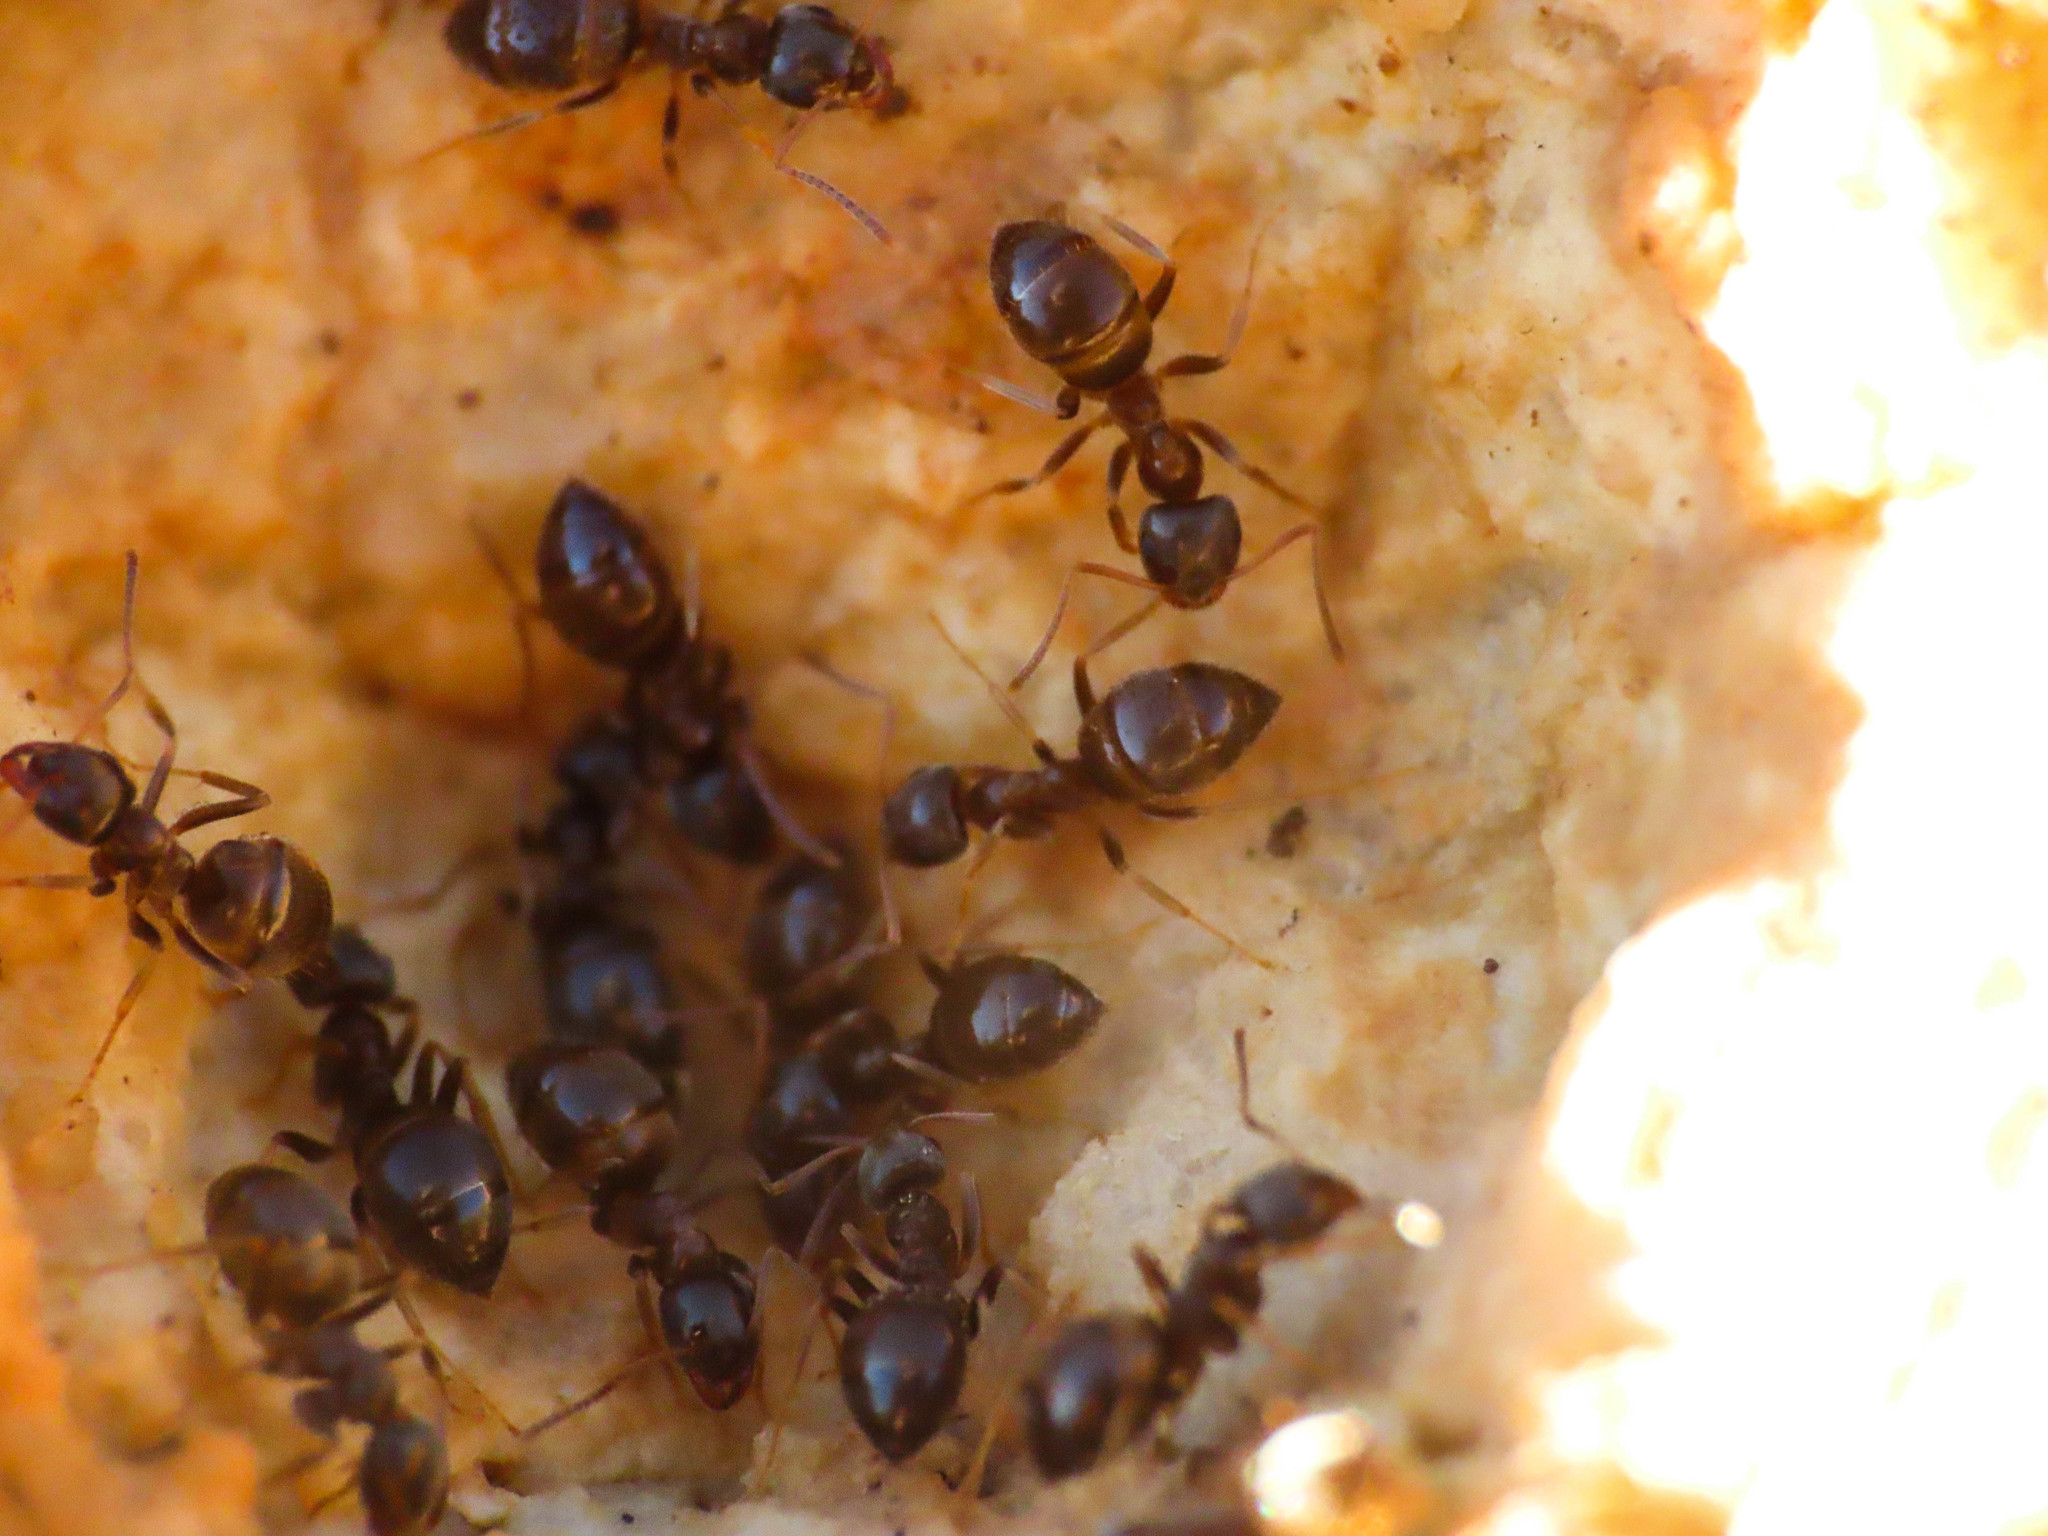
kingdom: Animalia
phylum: Arthropoda
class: Insecta
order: Hymenoptera
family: Formicidae
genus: Lasius
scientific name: Lasius niger
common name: Small black ant
